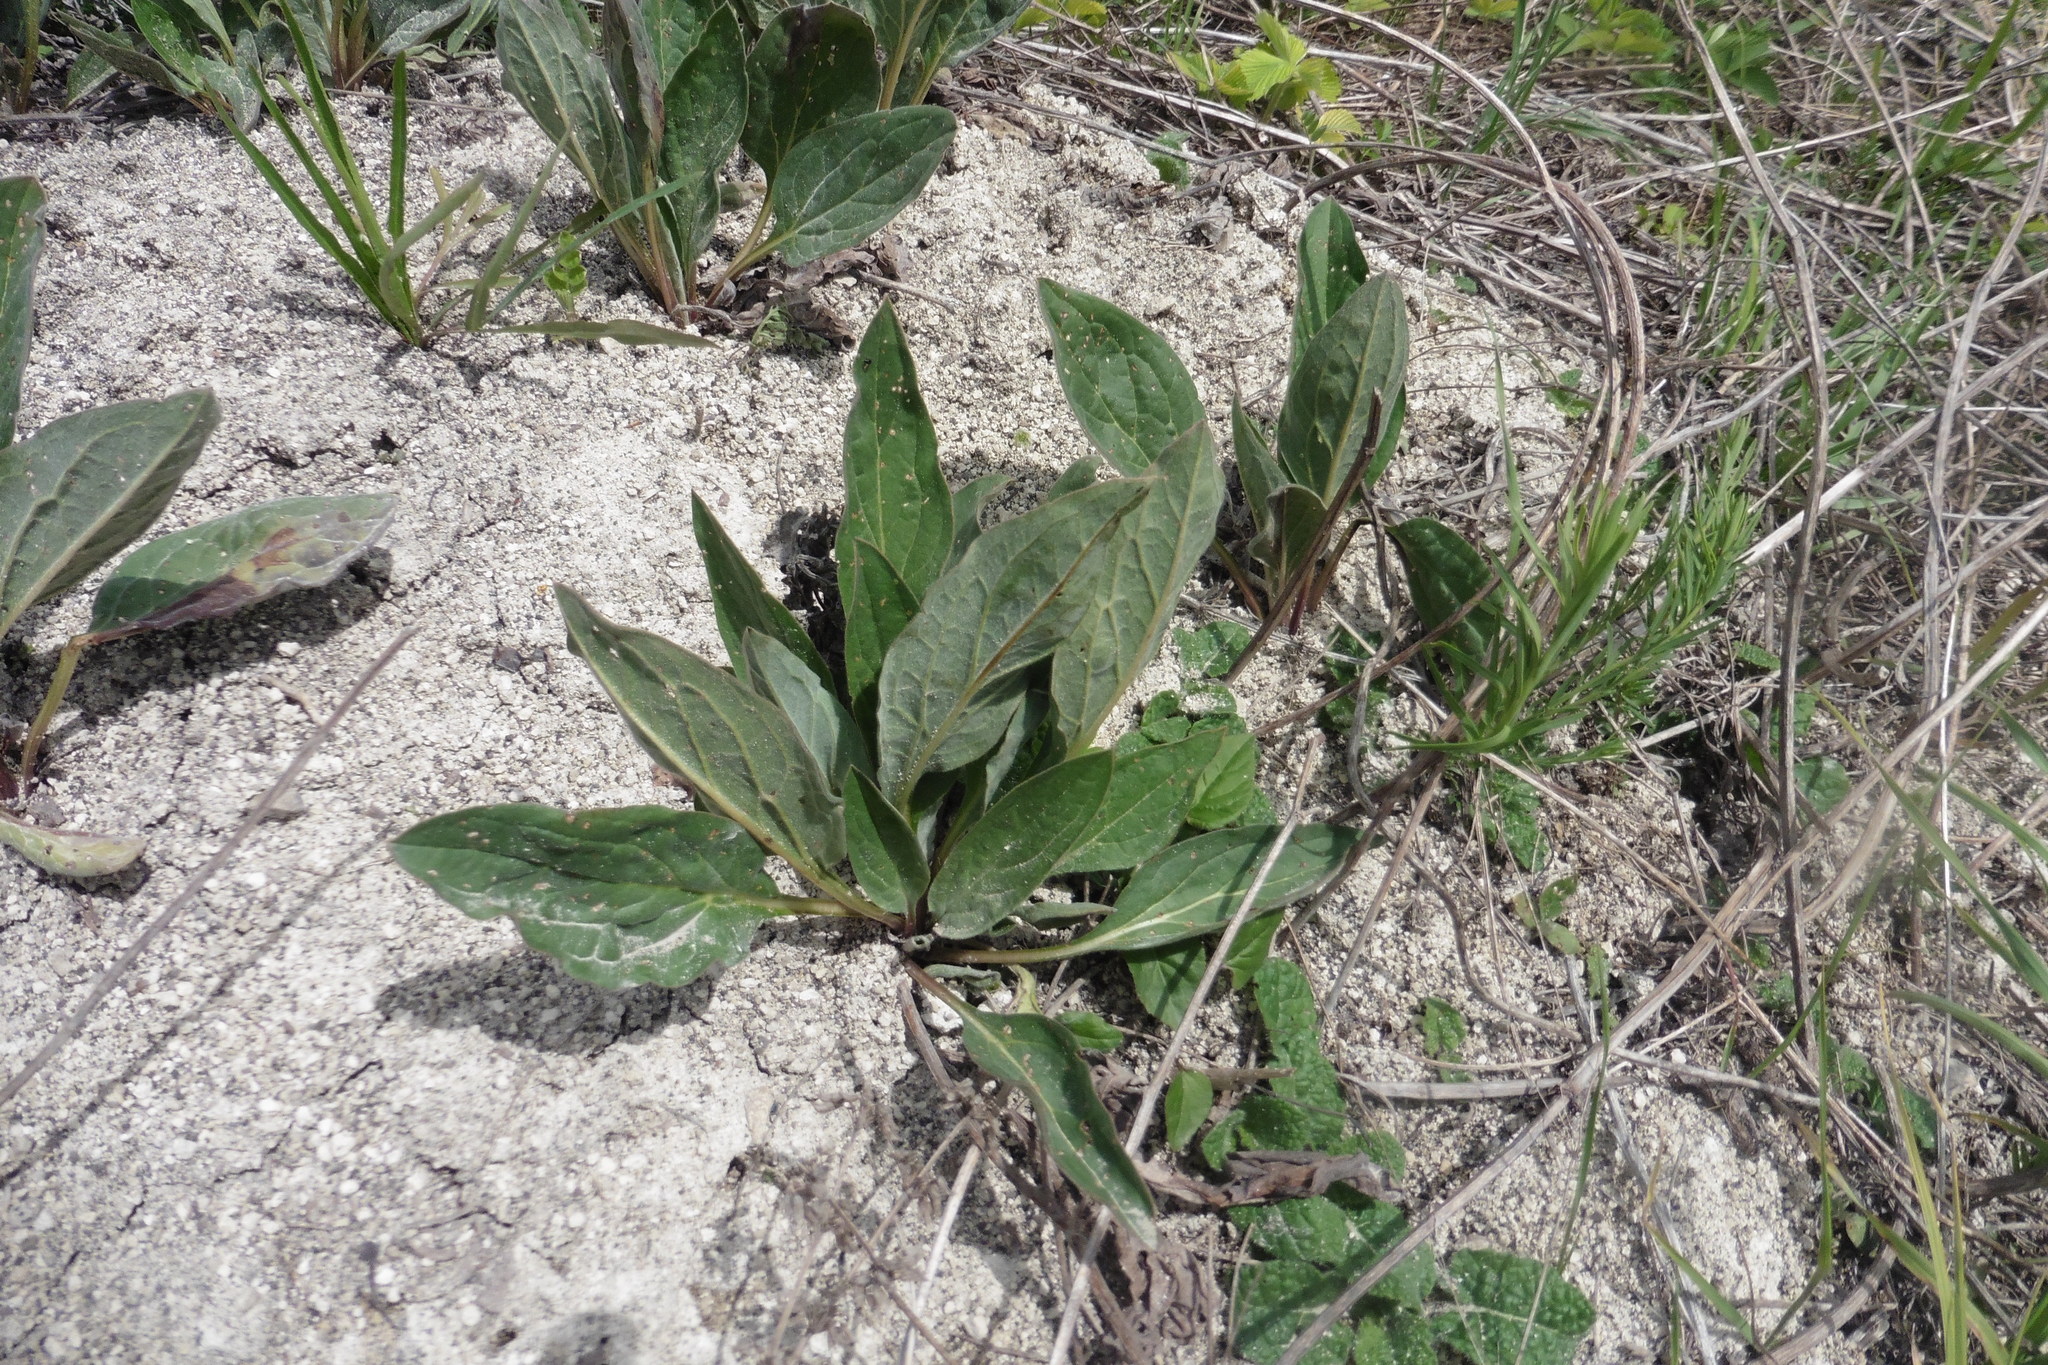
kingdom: Plantae
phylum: Tracheophyta
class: Magnoliopsida
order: Boraginales
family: Boraginaceae
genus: Cynoglossum
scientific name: Cynoglossum officinale
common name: Hound's-tongue
